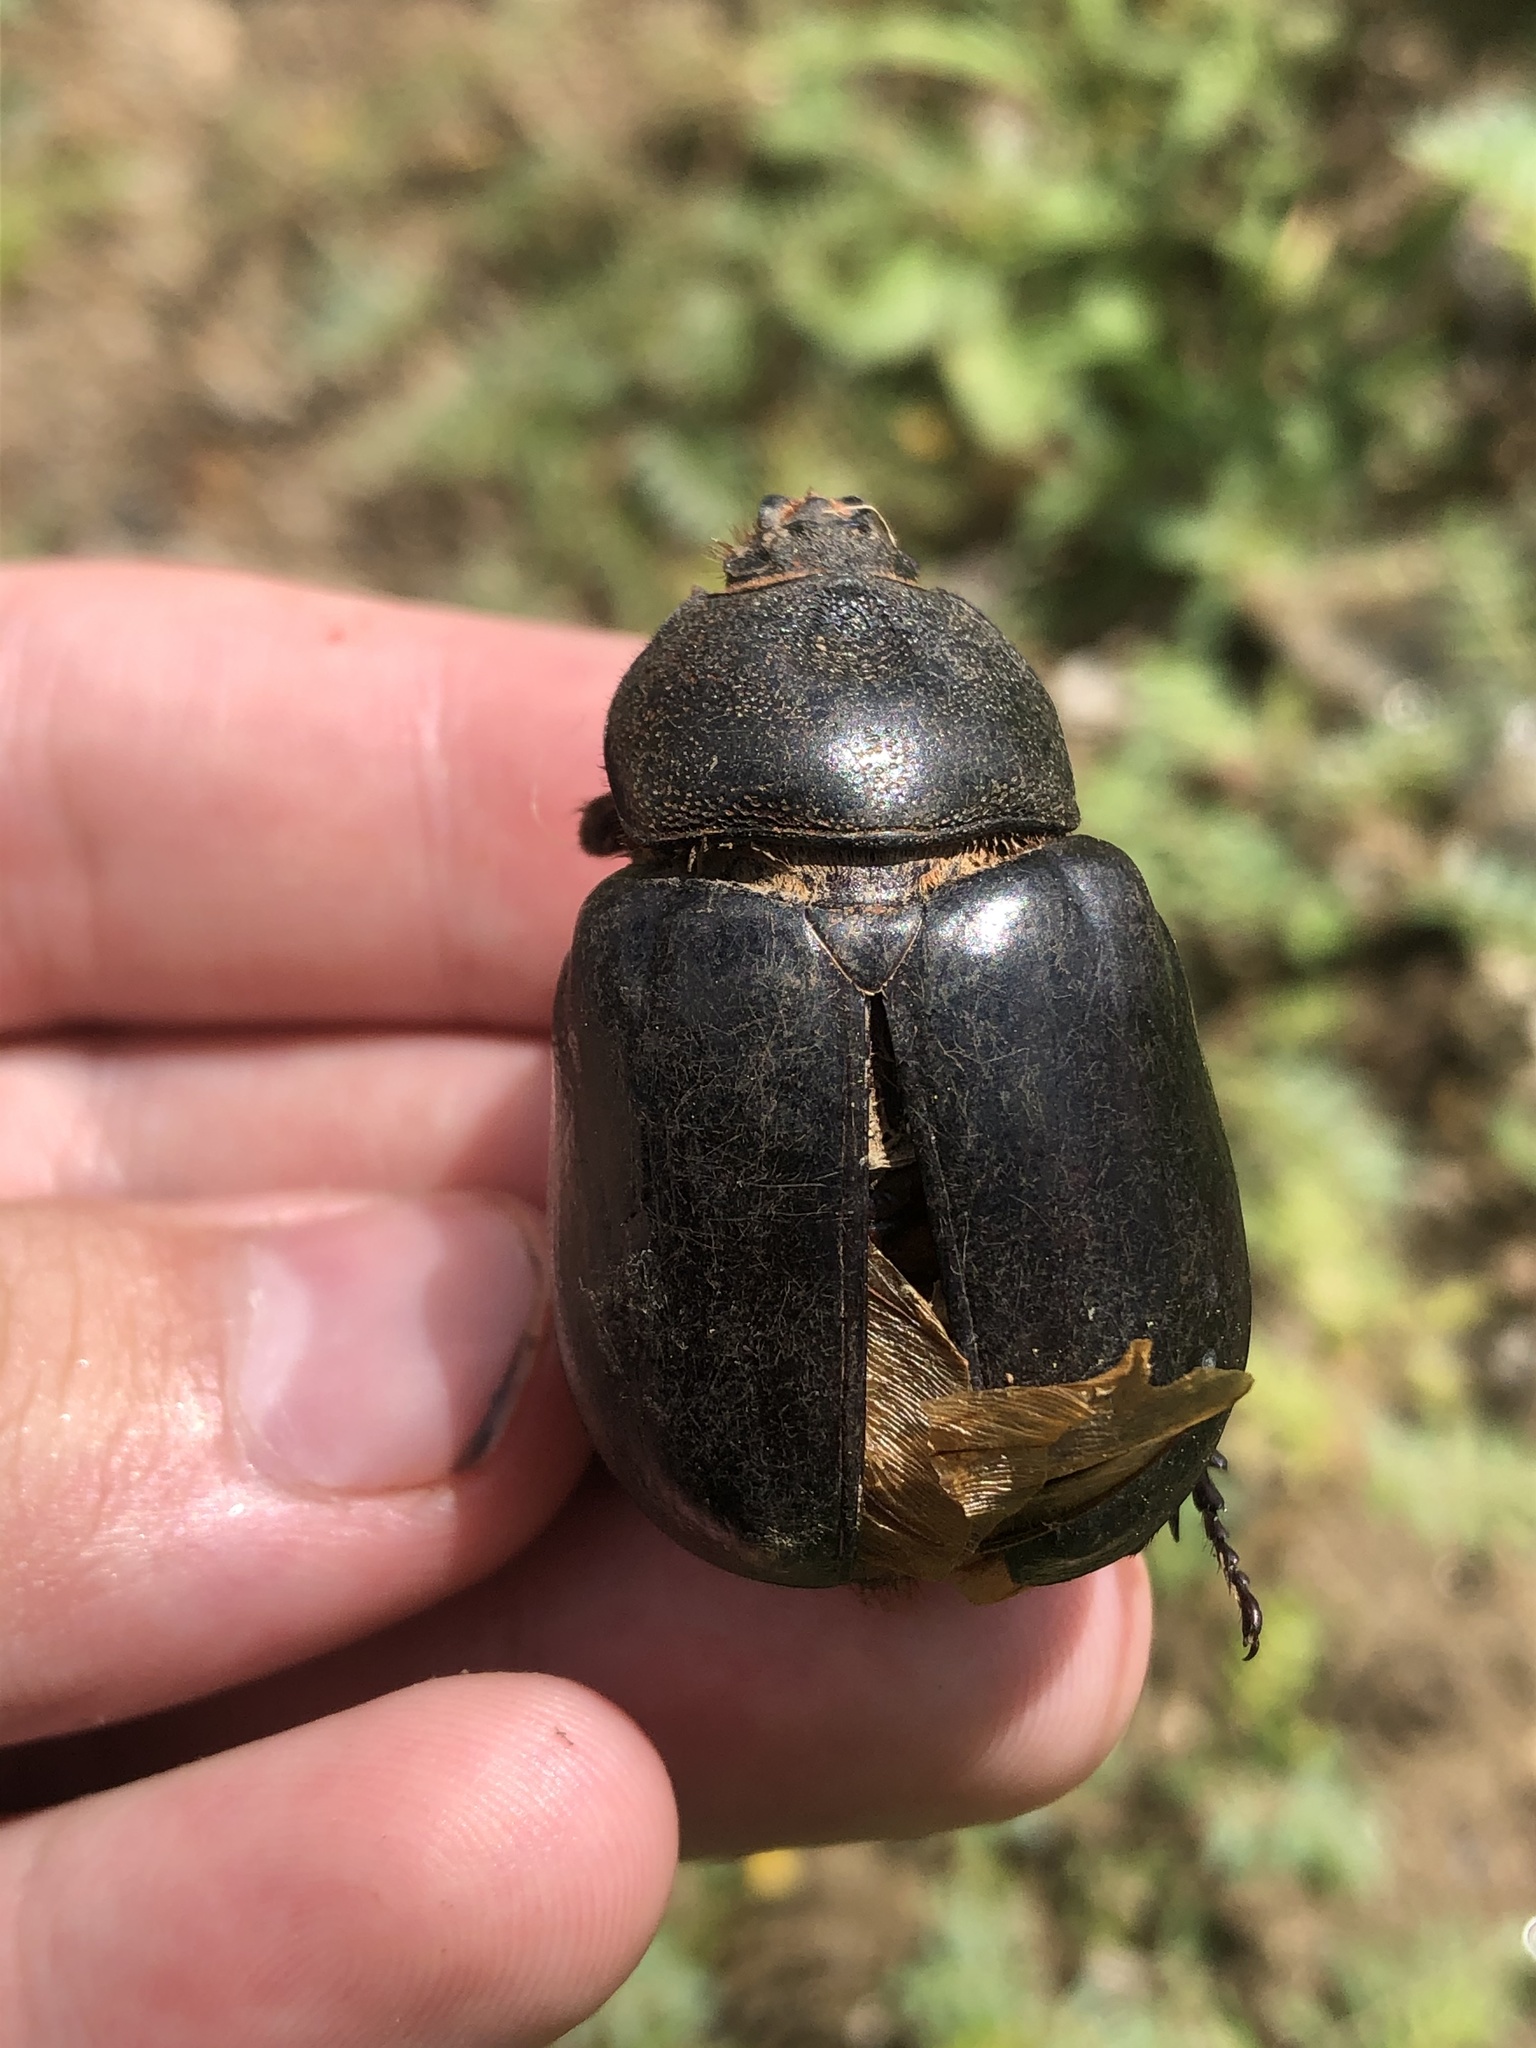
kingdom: Animalia
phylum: Arthropoda
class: Insecta
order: Coleoptera
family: Scarabaeidae
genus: Strategus
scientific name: Strategus cessus
